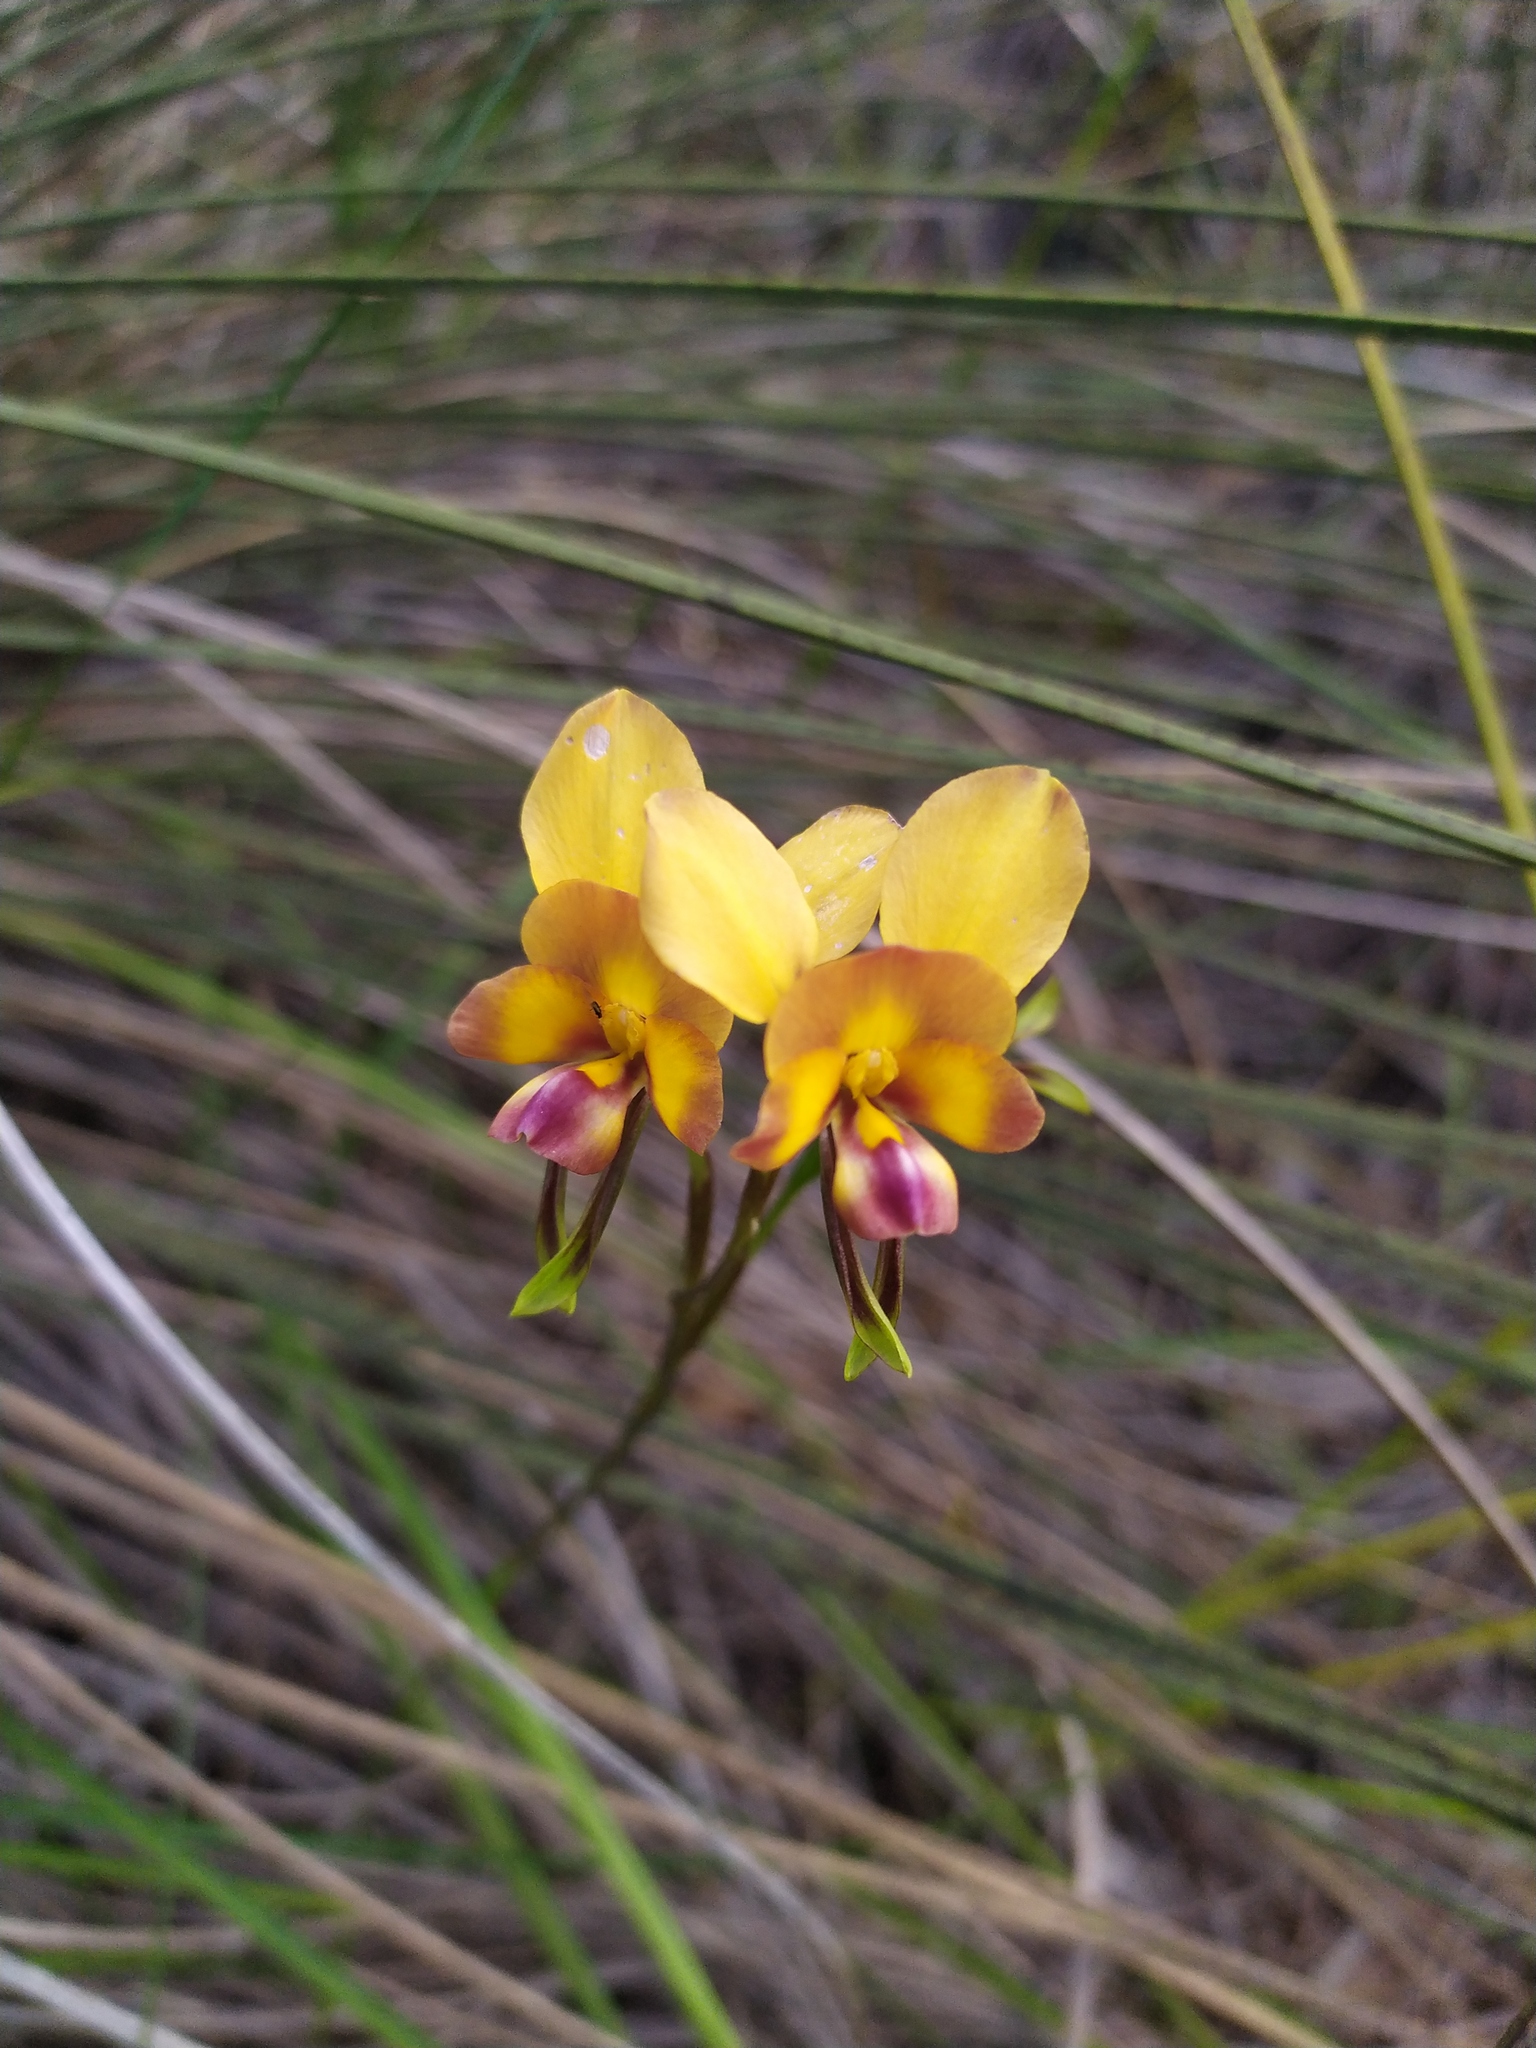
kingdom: Plantae
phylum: Tracheophyta
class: Liliopsida
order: Asparagales
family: Orchidaceae
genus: Diuris
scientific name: Diuris magnifica
